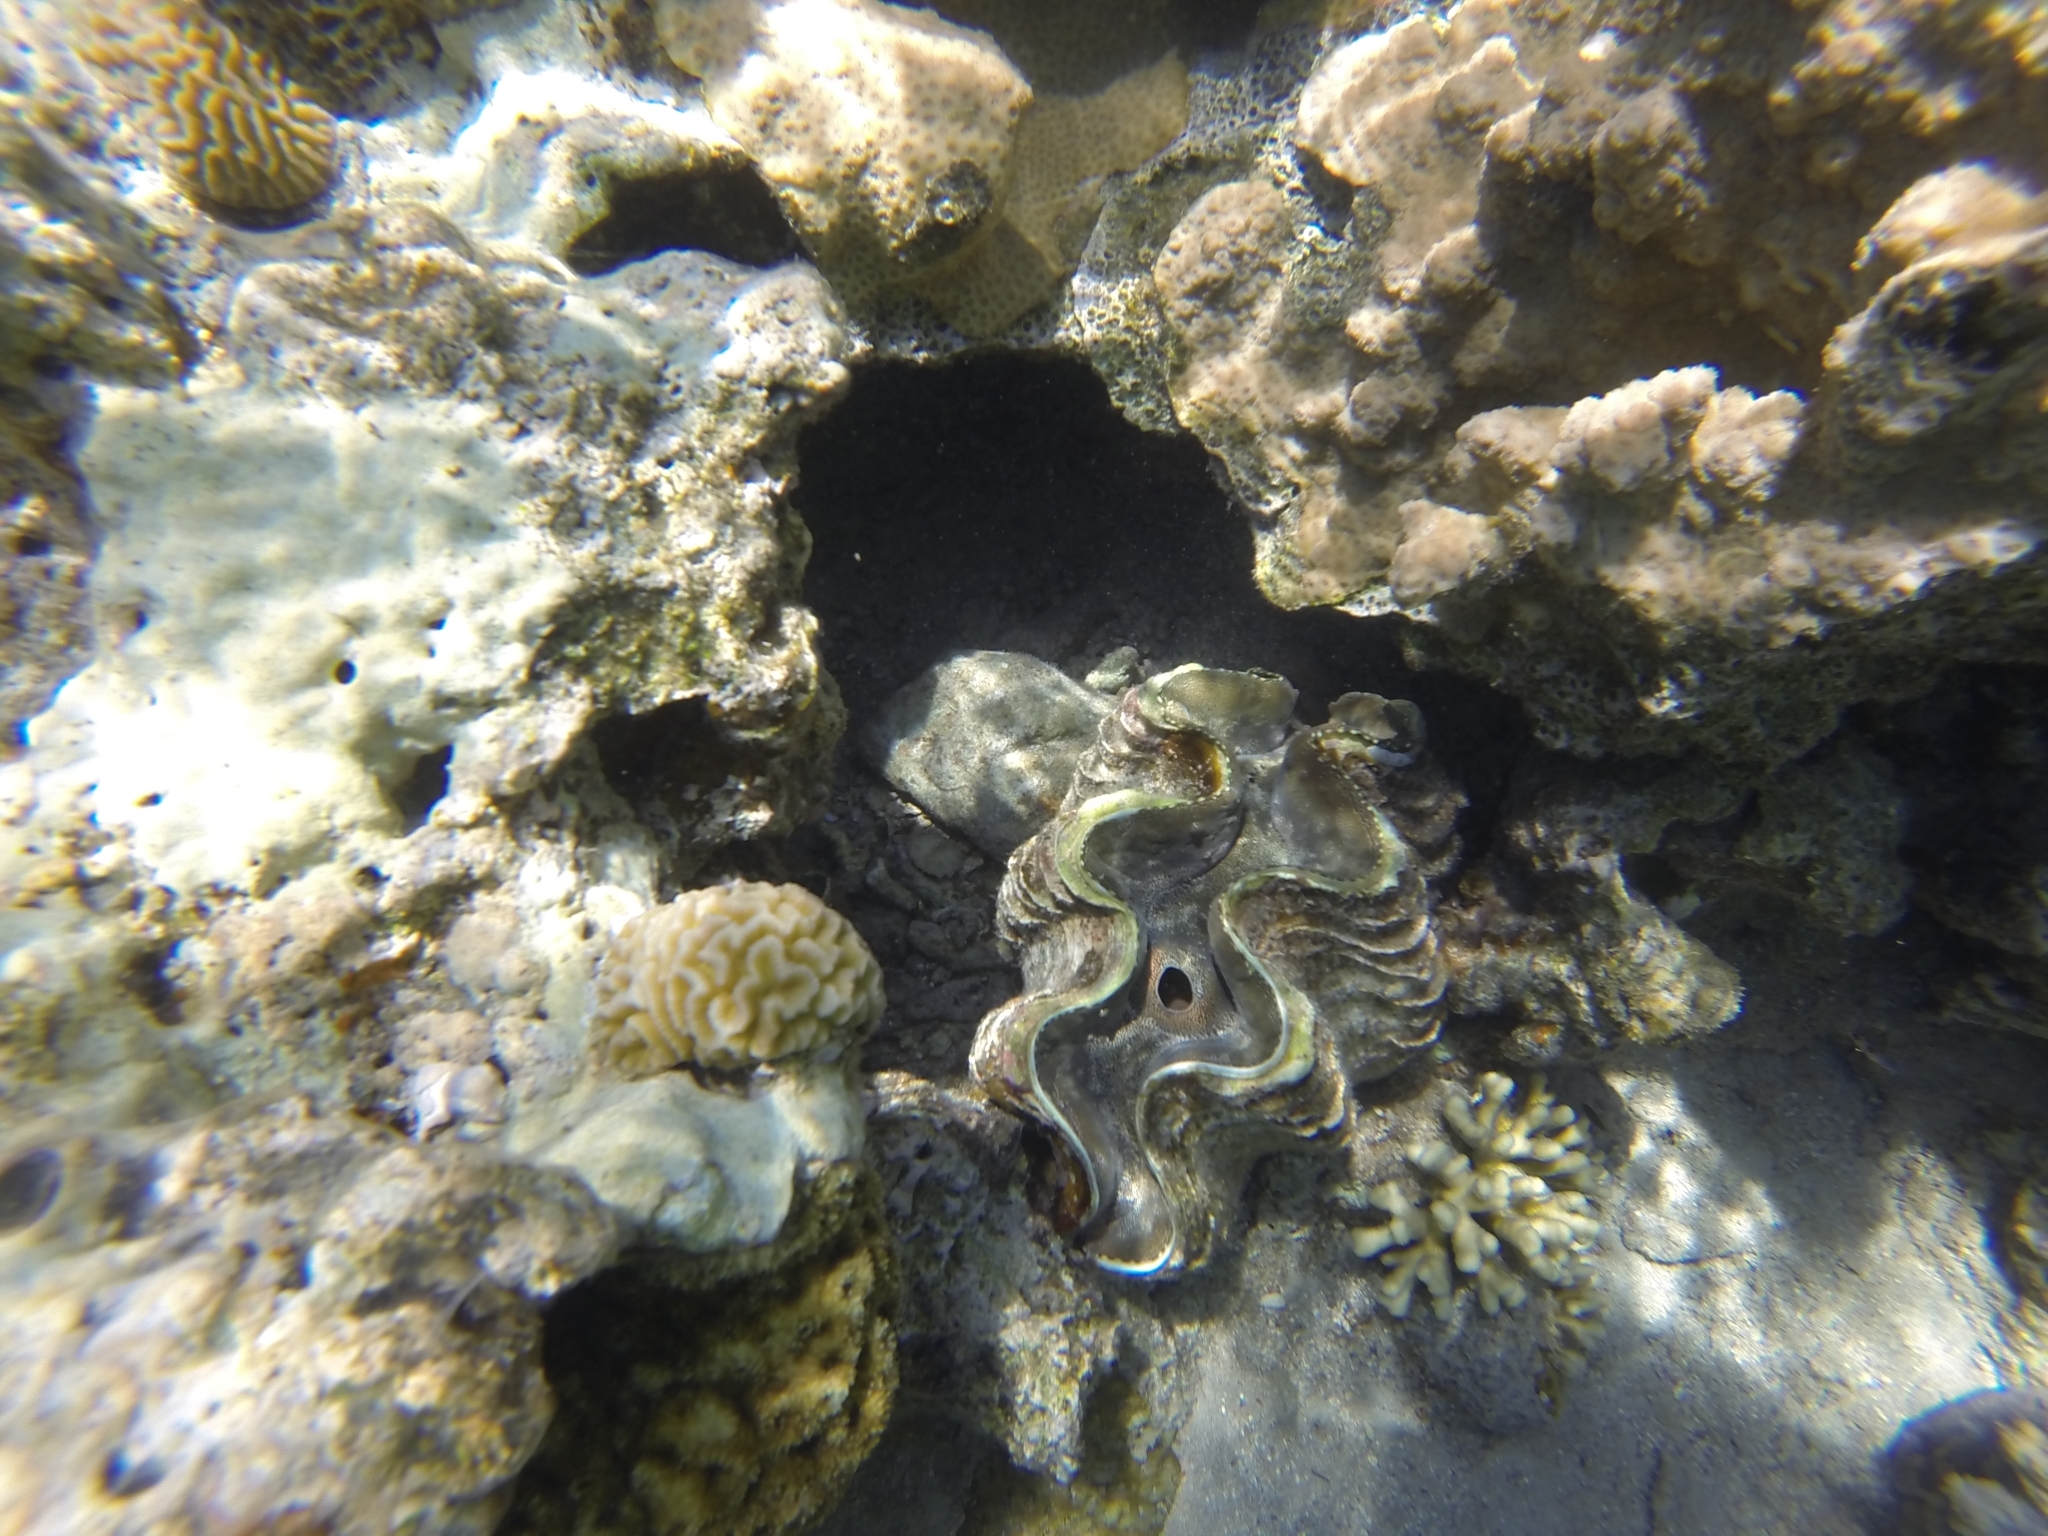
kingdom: Animalia
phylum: Mollusca
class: Bivalvia
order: Cardiida
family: Cardiidae
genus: Tridacna
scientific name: Tridacna maxima
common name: Small giant clam
